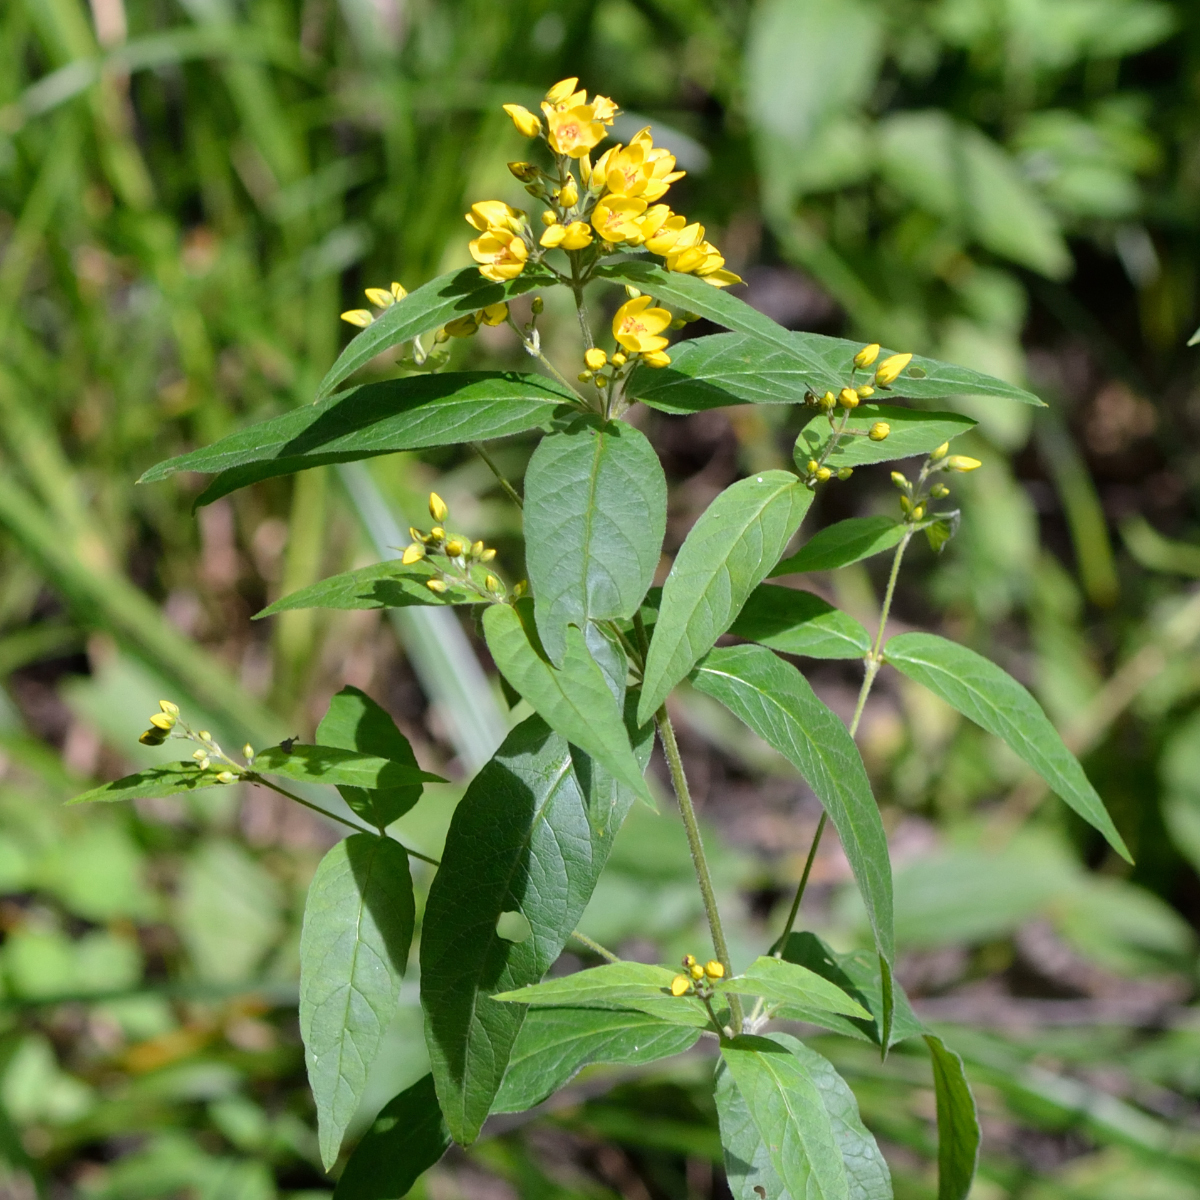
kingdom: Plantae
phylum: Tracheophyta
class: Magnoliopsida
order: Ericales
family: Primulaceae
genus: Lysimachia
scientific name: Lysimachia vulgaris
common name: Yellow loosestrife
